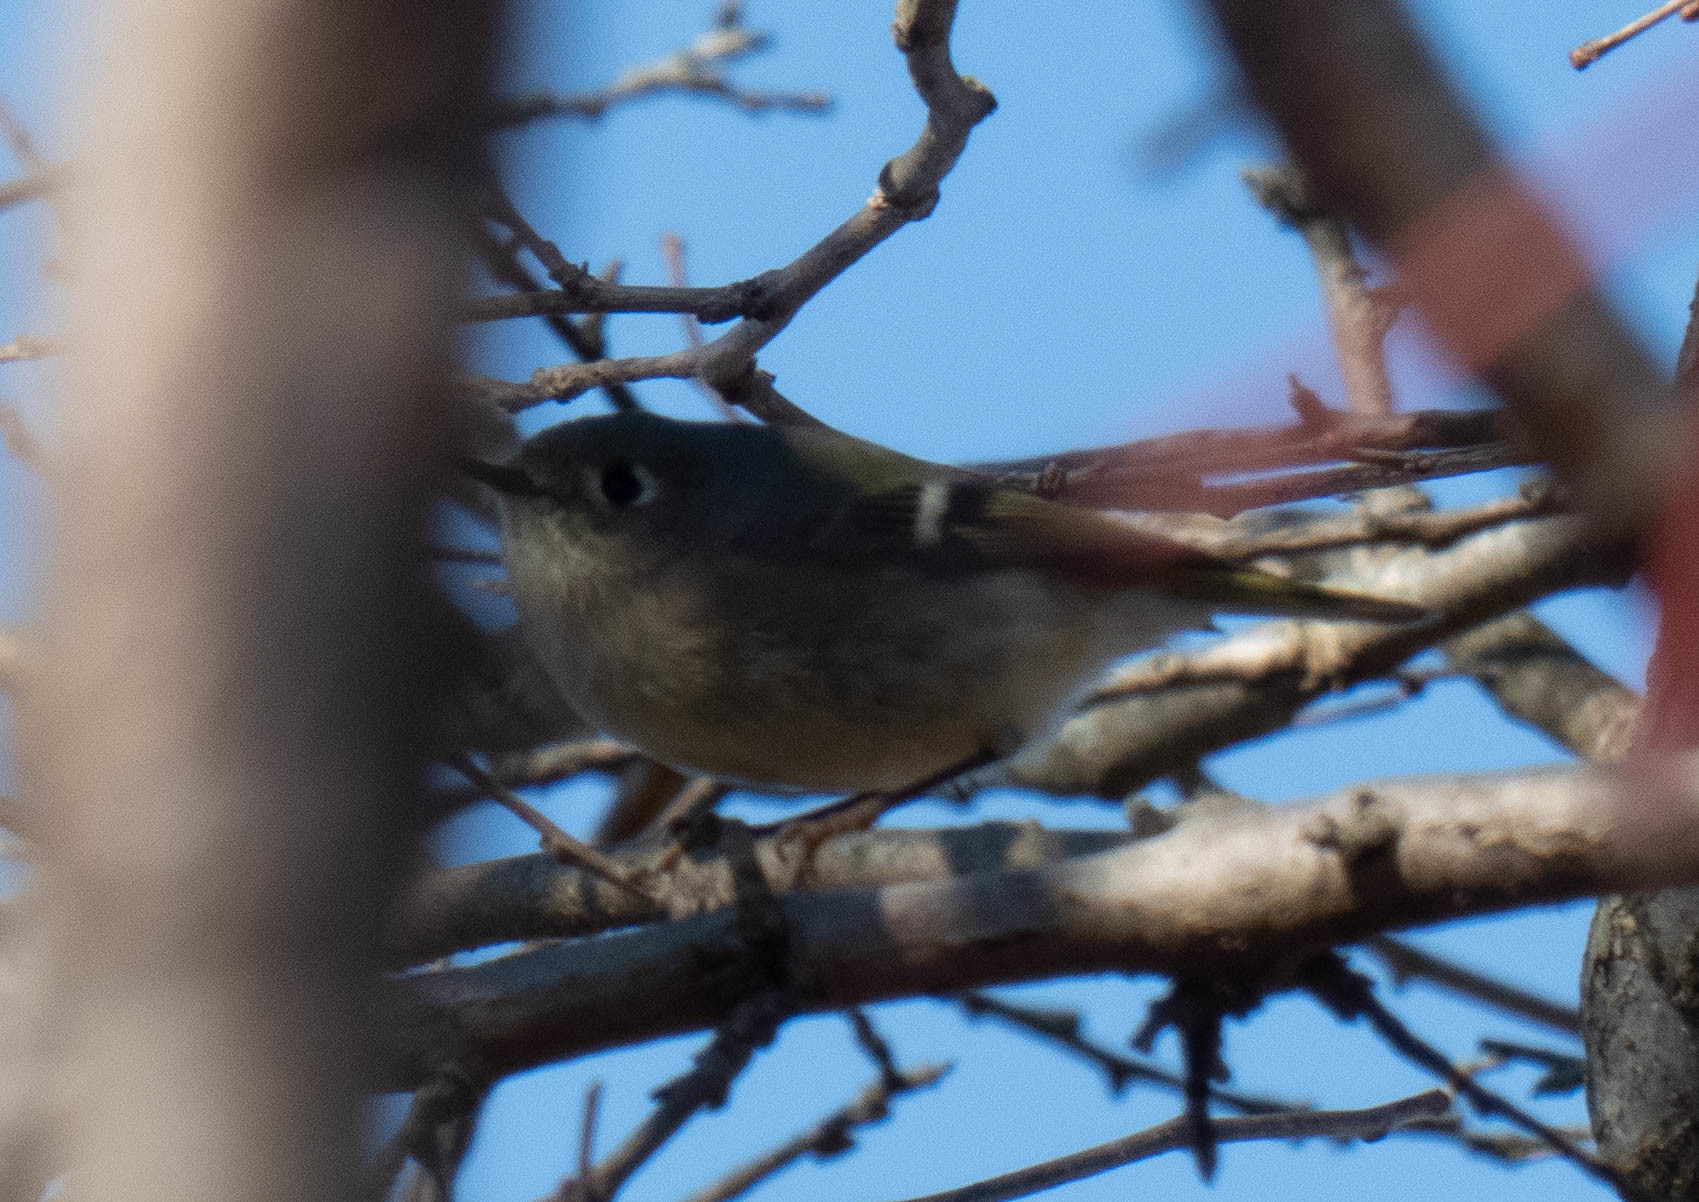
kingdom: Animalia
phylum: Chordata
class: Aves
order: Passeriformes
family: Regulidae
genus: Regulus
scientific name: Regulus calendula
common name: Ruby-crowned kinglet
